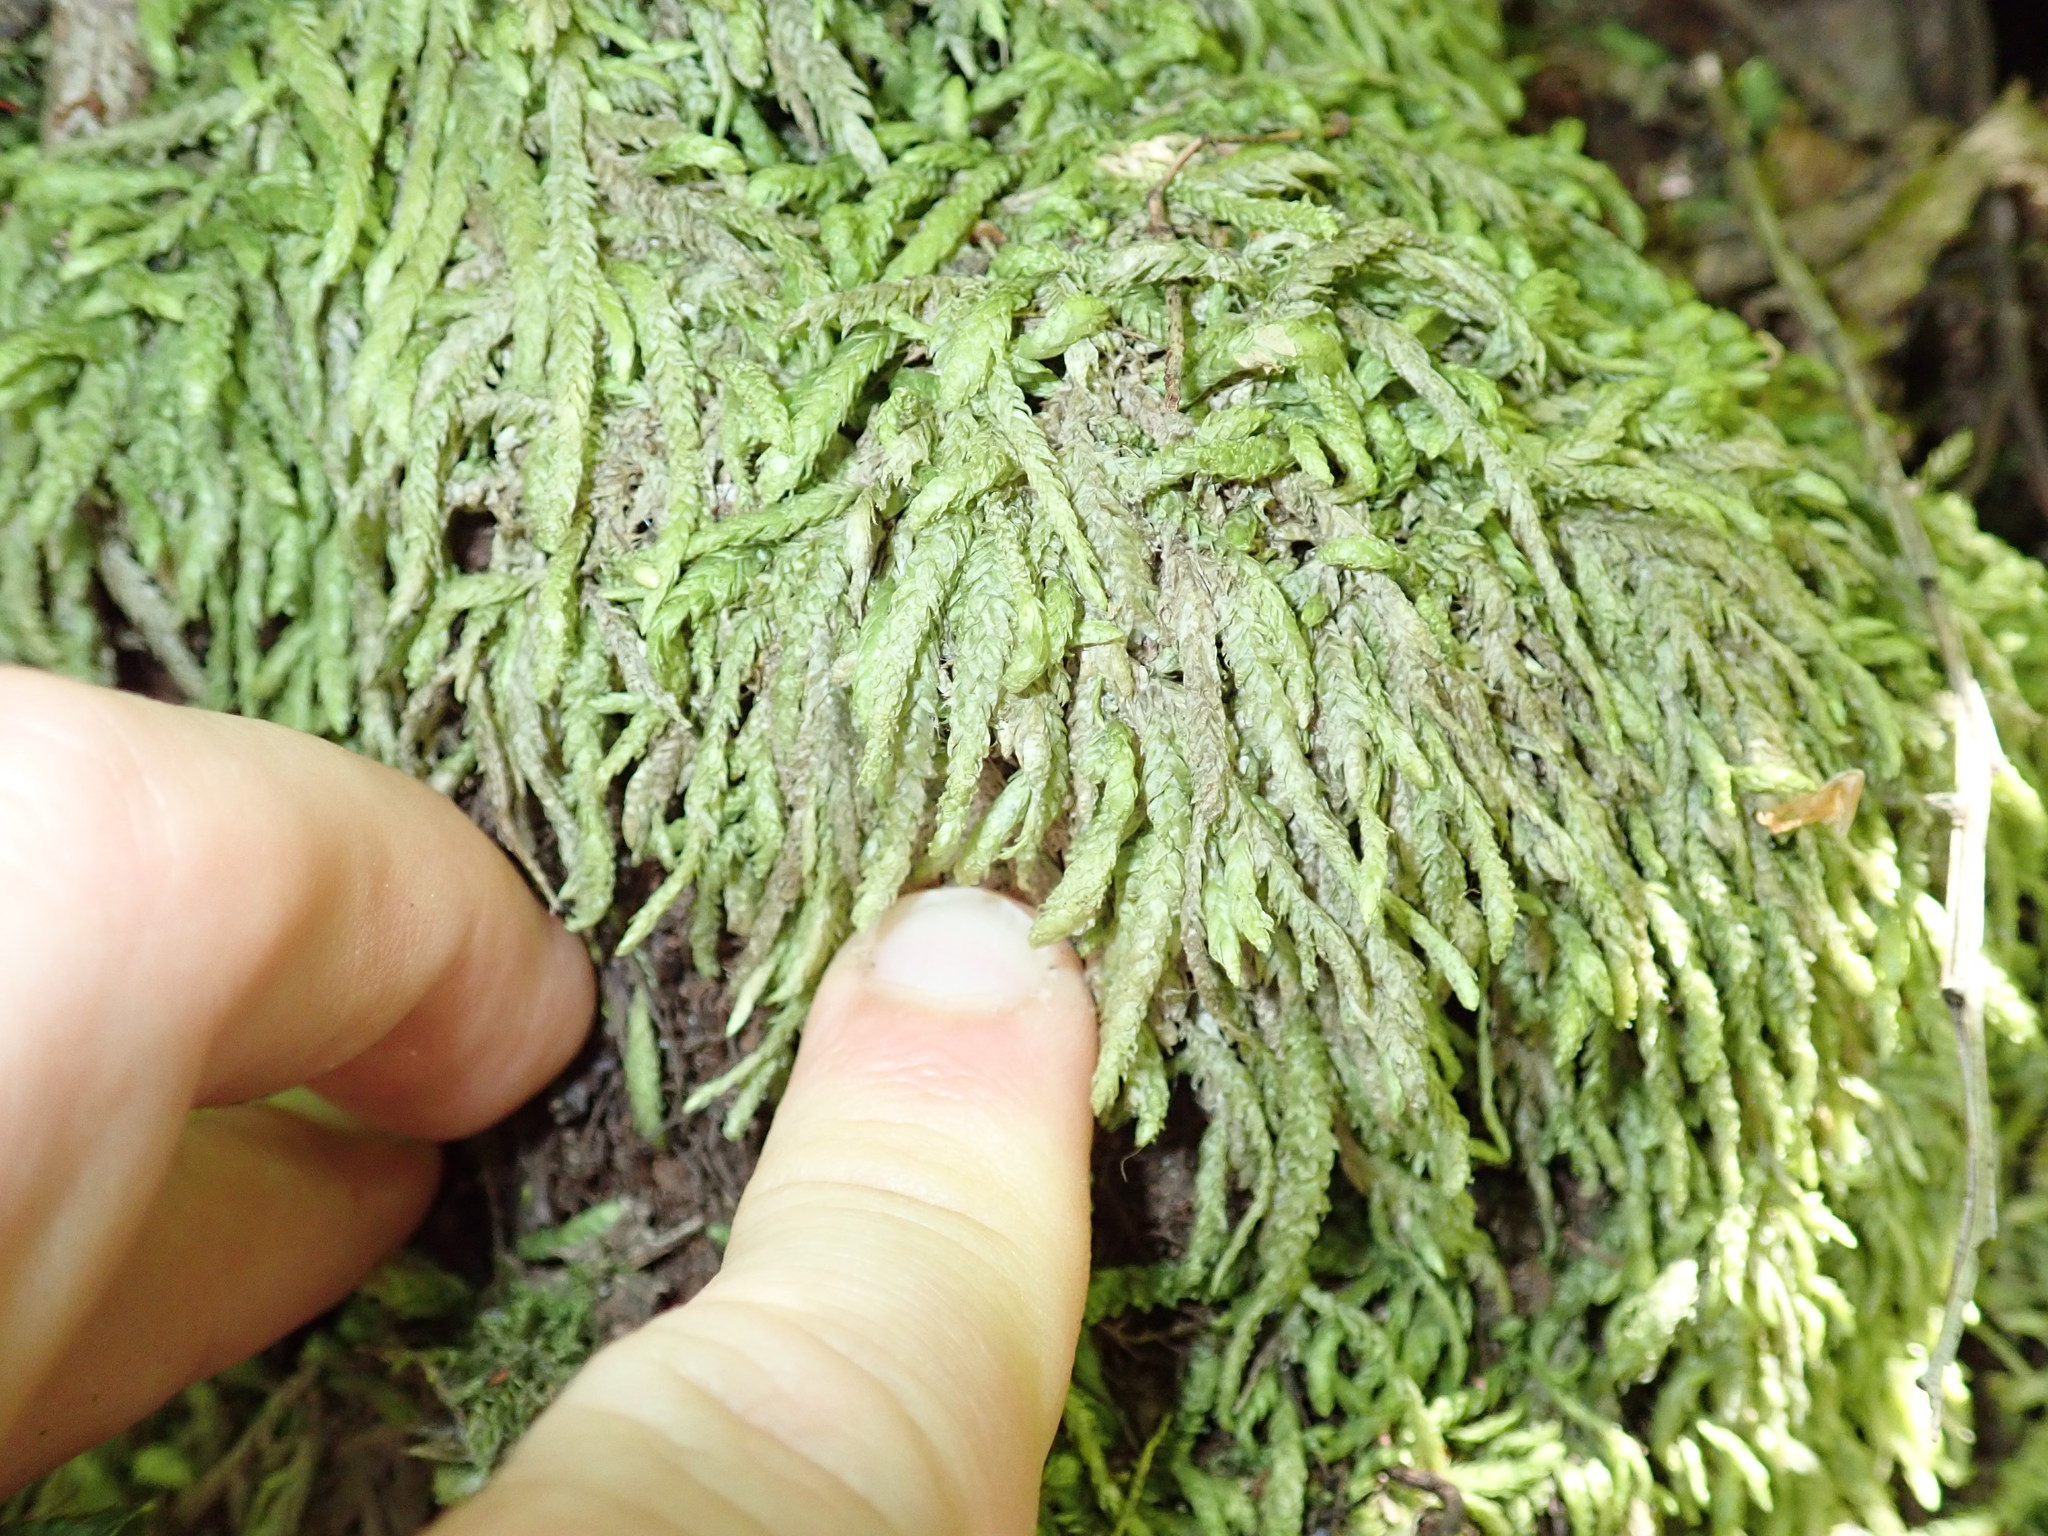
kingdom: Plantae
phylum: Bryophyta
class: Bryopsida
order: Hypnales
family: Plagiotheciaceae
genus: Plagiothecium
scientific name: Plagiothecium undulatum
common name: Waved silk-moss
